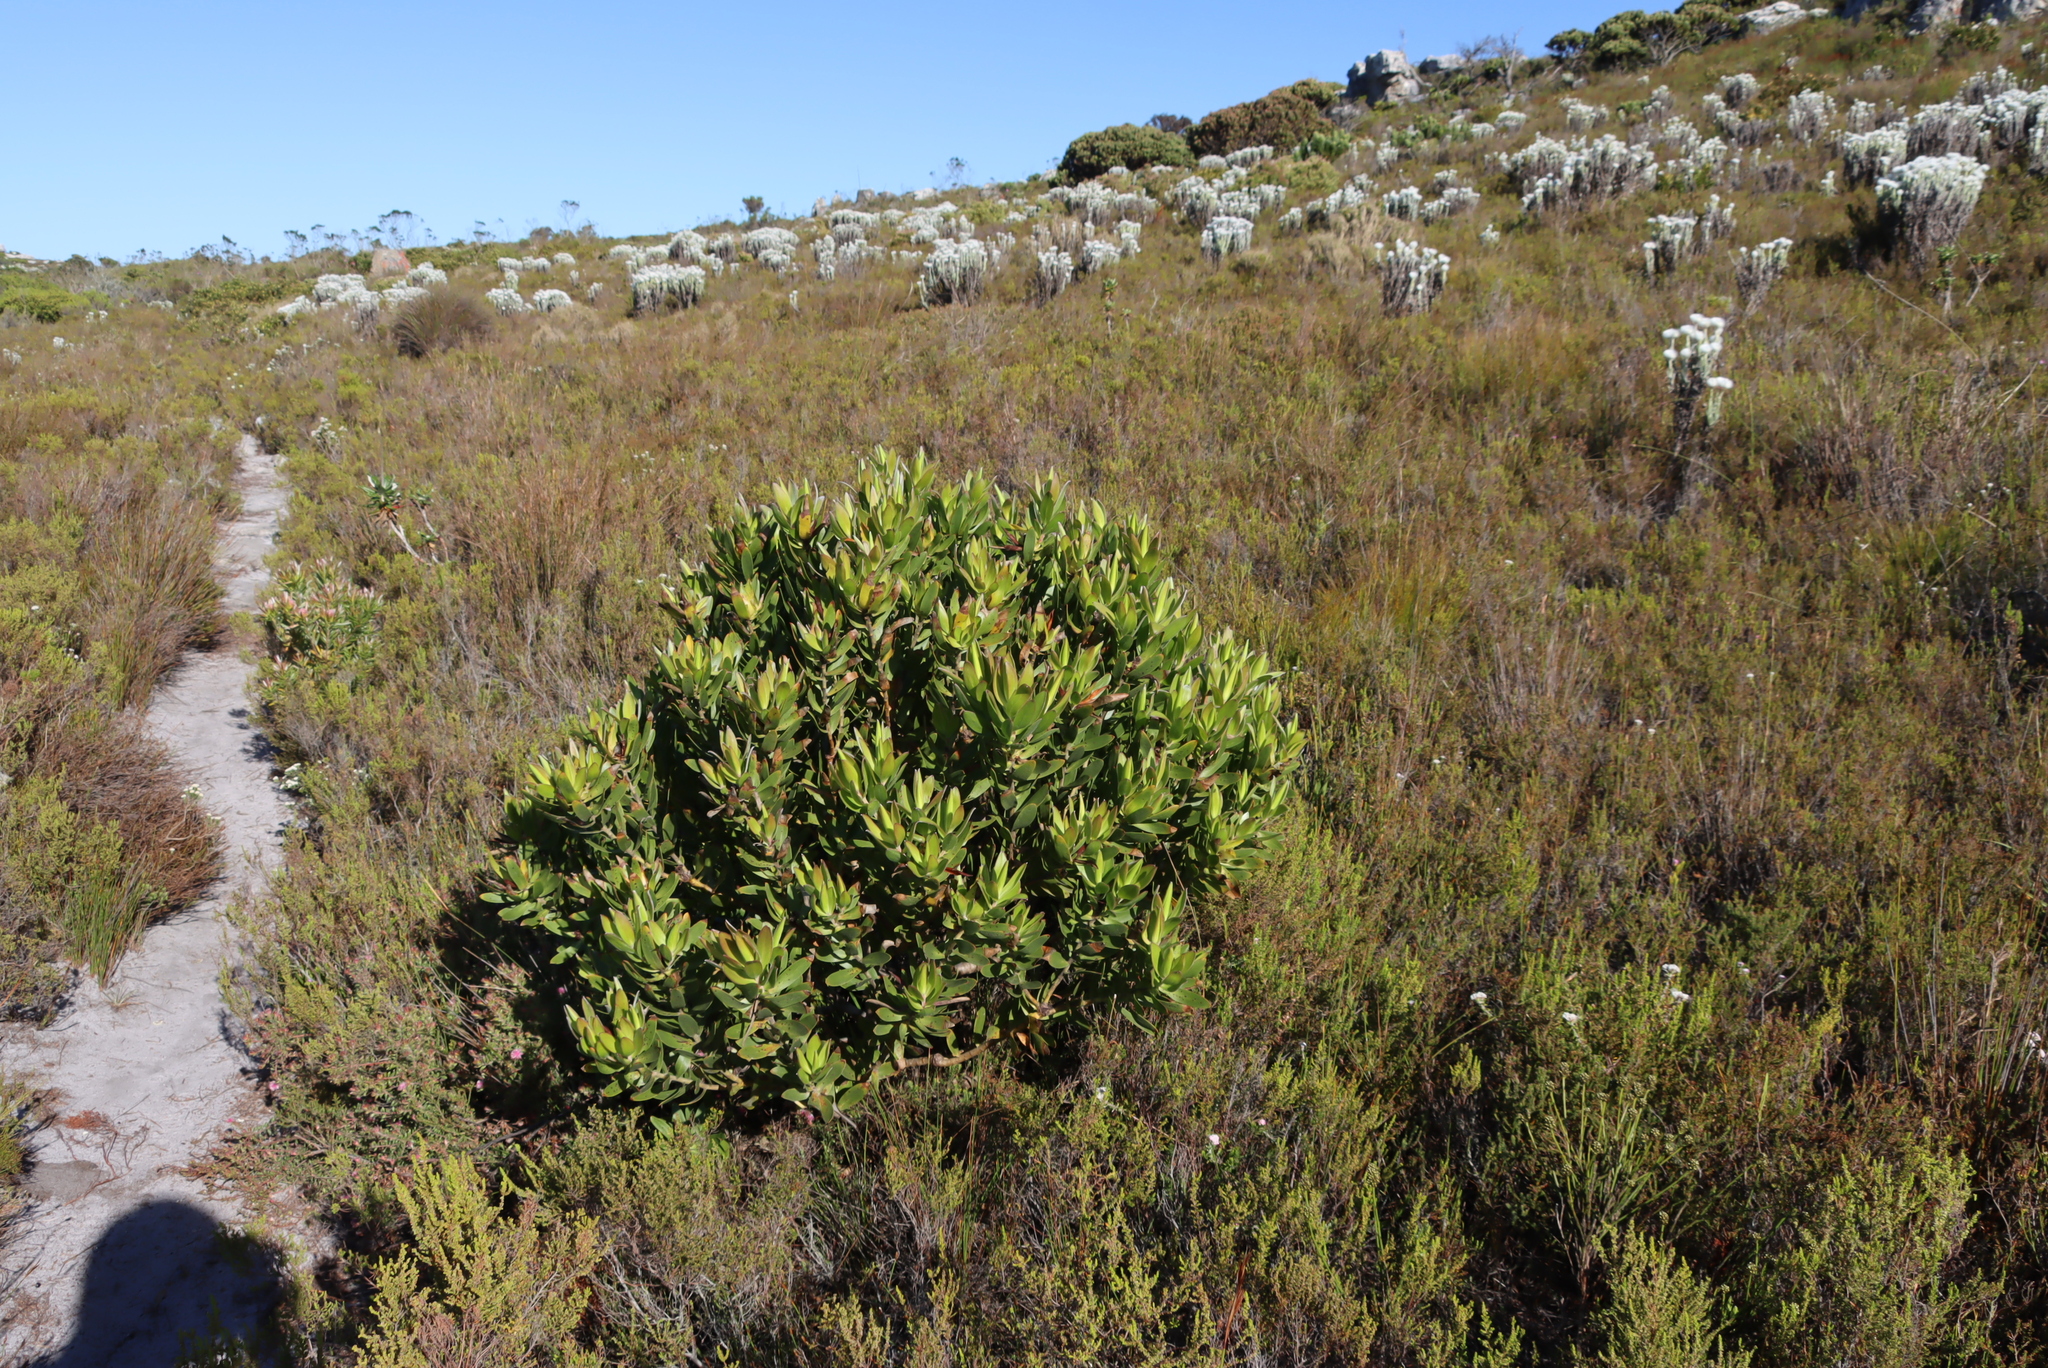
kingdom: Plantae
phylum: Tracheophyta
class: Magnoliopsida
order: Proteales
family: Proteaceae
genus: Leucadendron
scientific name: Leucadendron laureolum
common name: Golden sunshinebush
